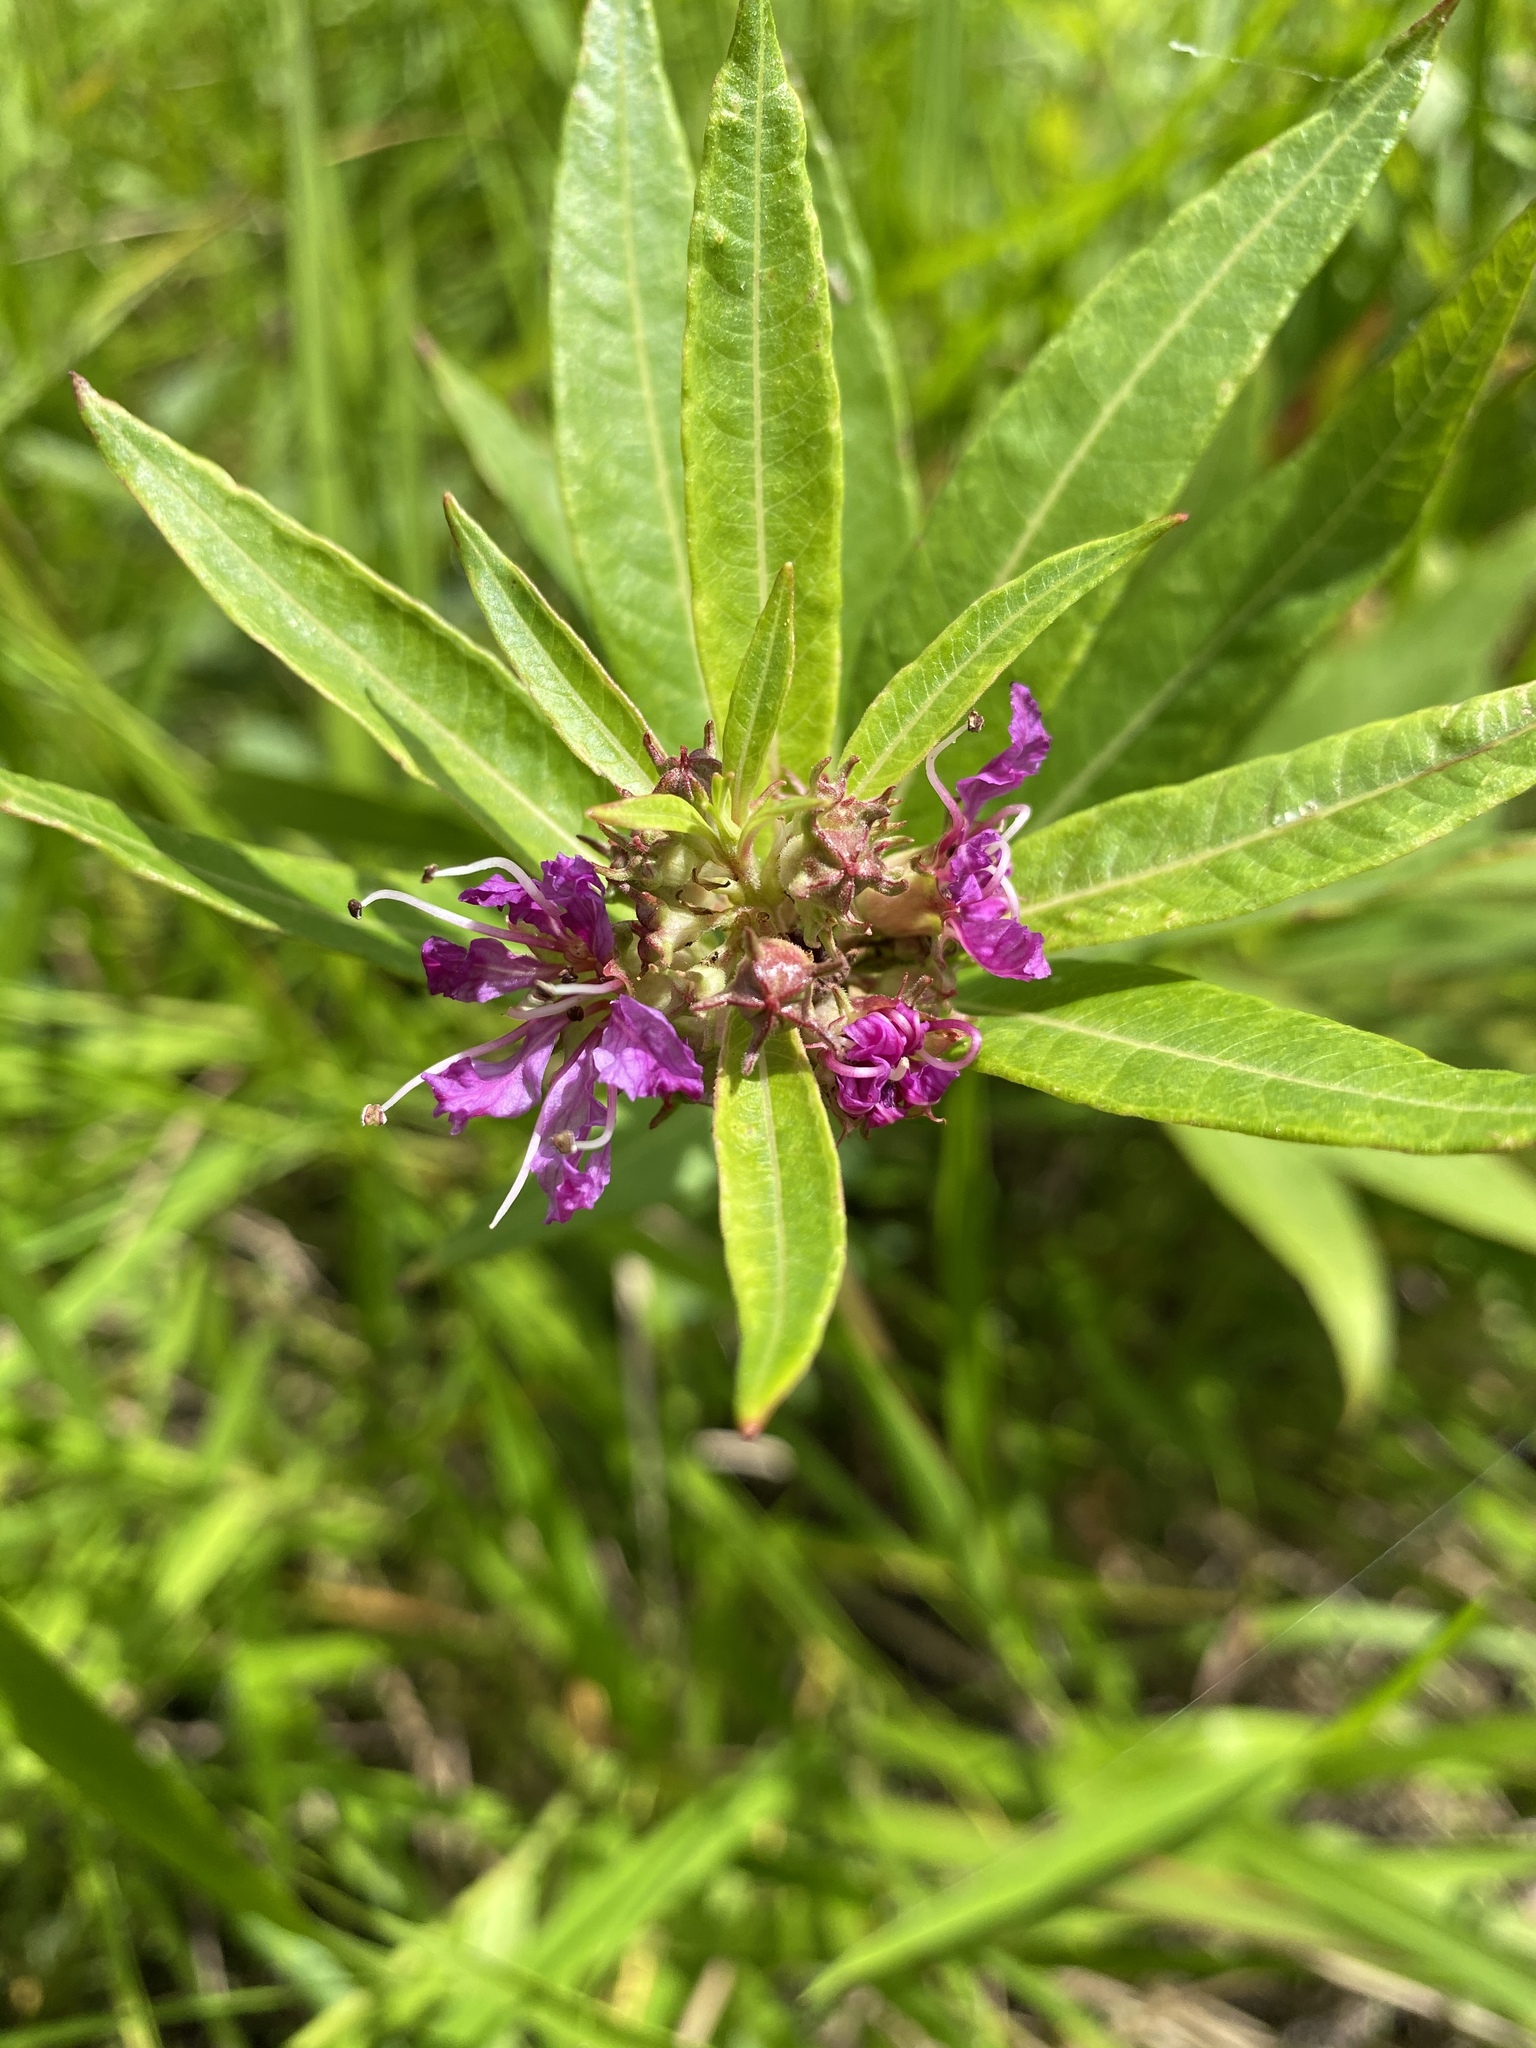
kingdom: Plantae
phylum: Tracheophyta
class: Magnoliopsida
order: Myrtales
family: Lythraceae
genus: Decodon
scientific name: Decodon verticillatus
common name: Hairy swamp loosestrife
